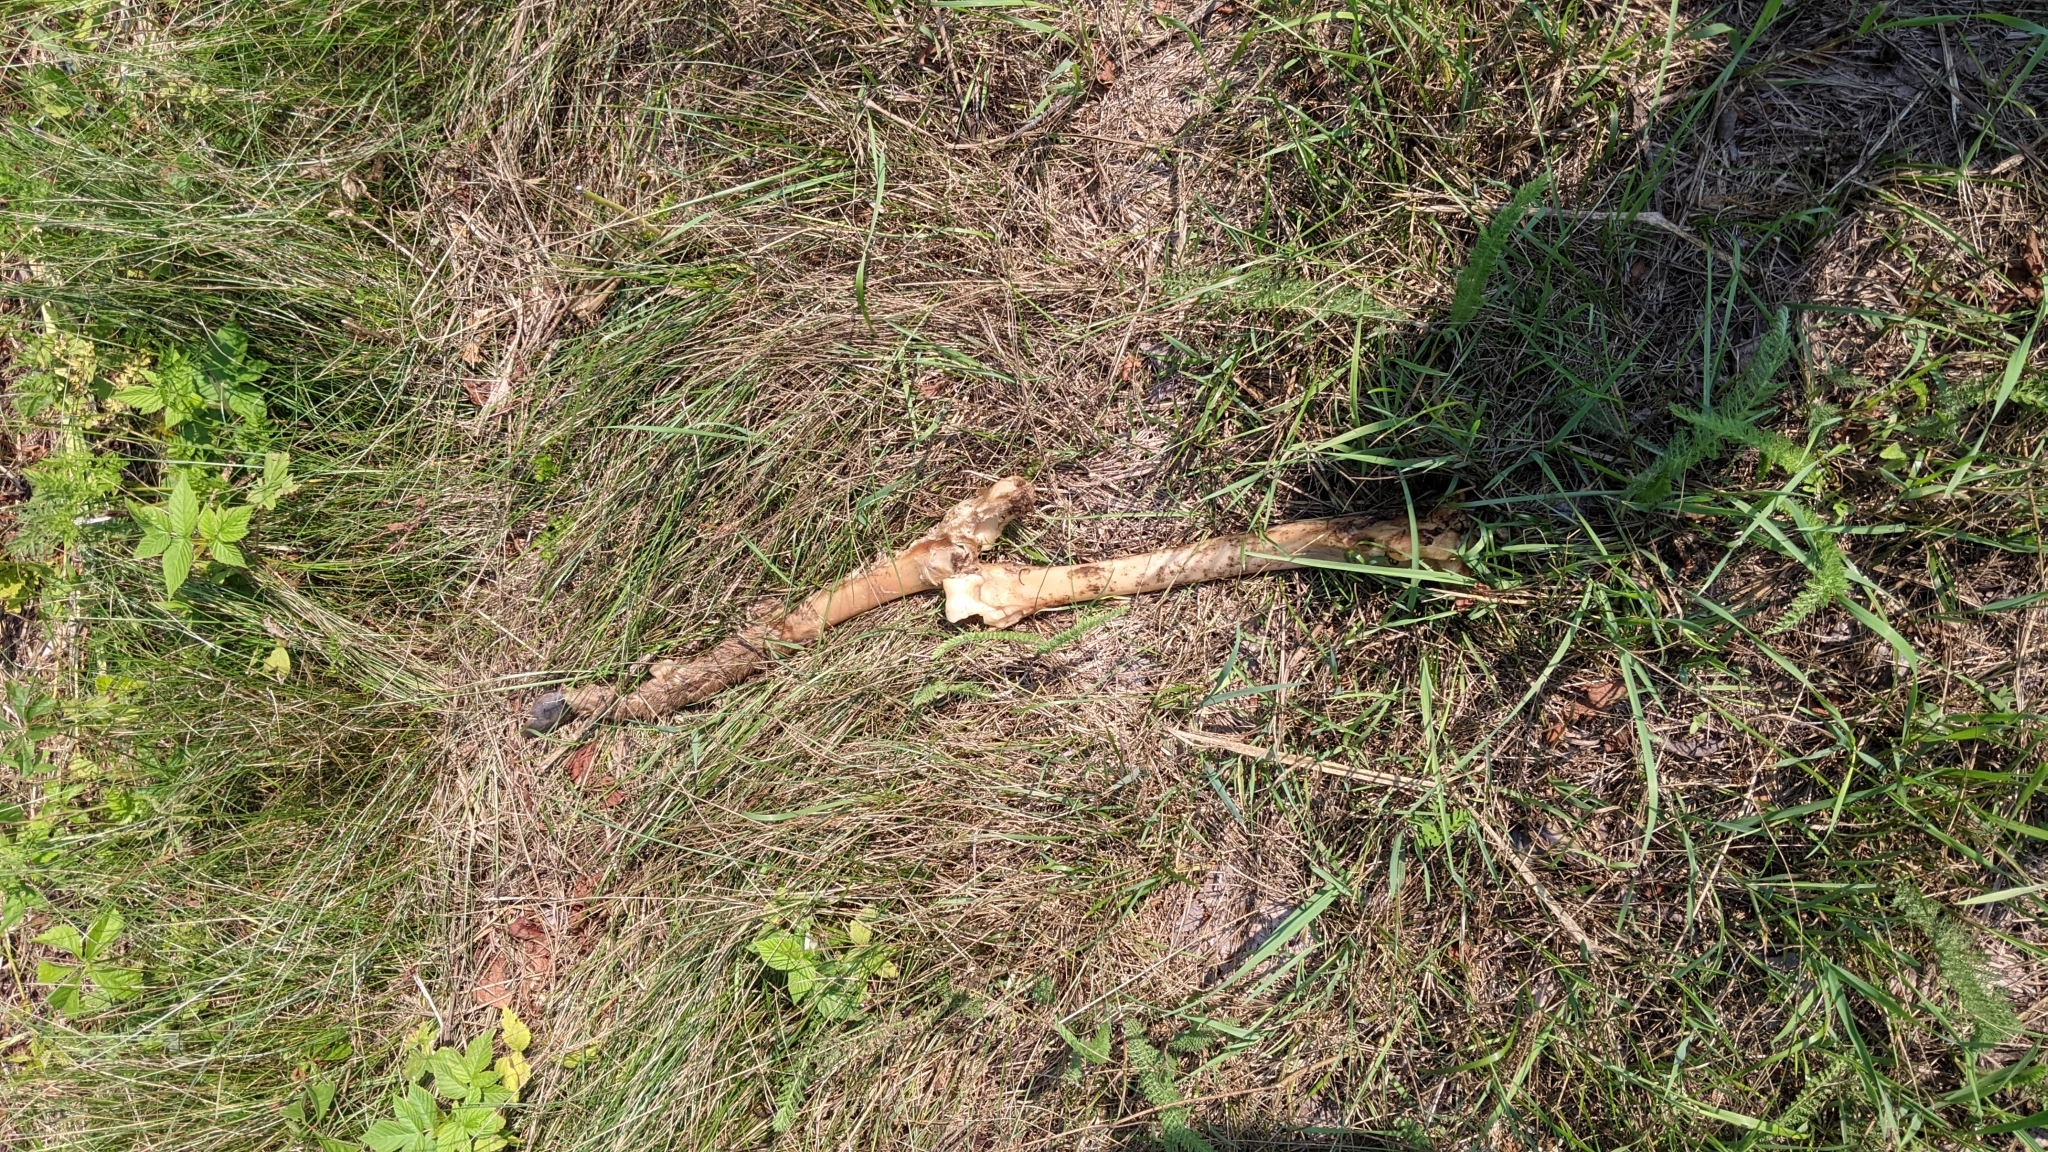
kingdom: Animalia
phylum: Chordata
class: Mammalia
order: Artiodactyla
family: Cervidae
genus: Odocoileus
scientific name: Odocoileus virginianus
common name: White-tailed deer
